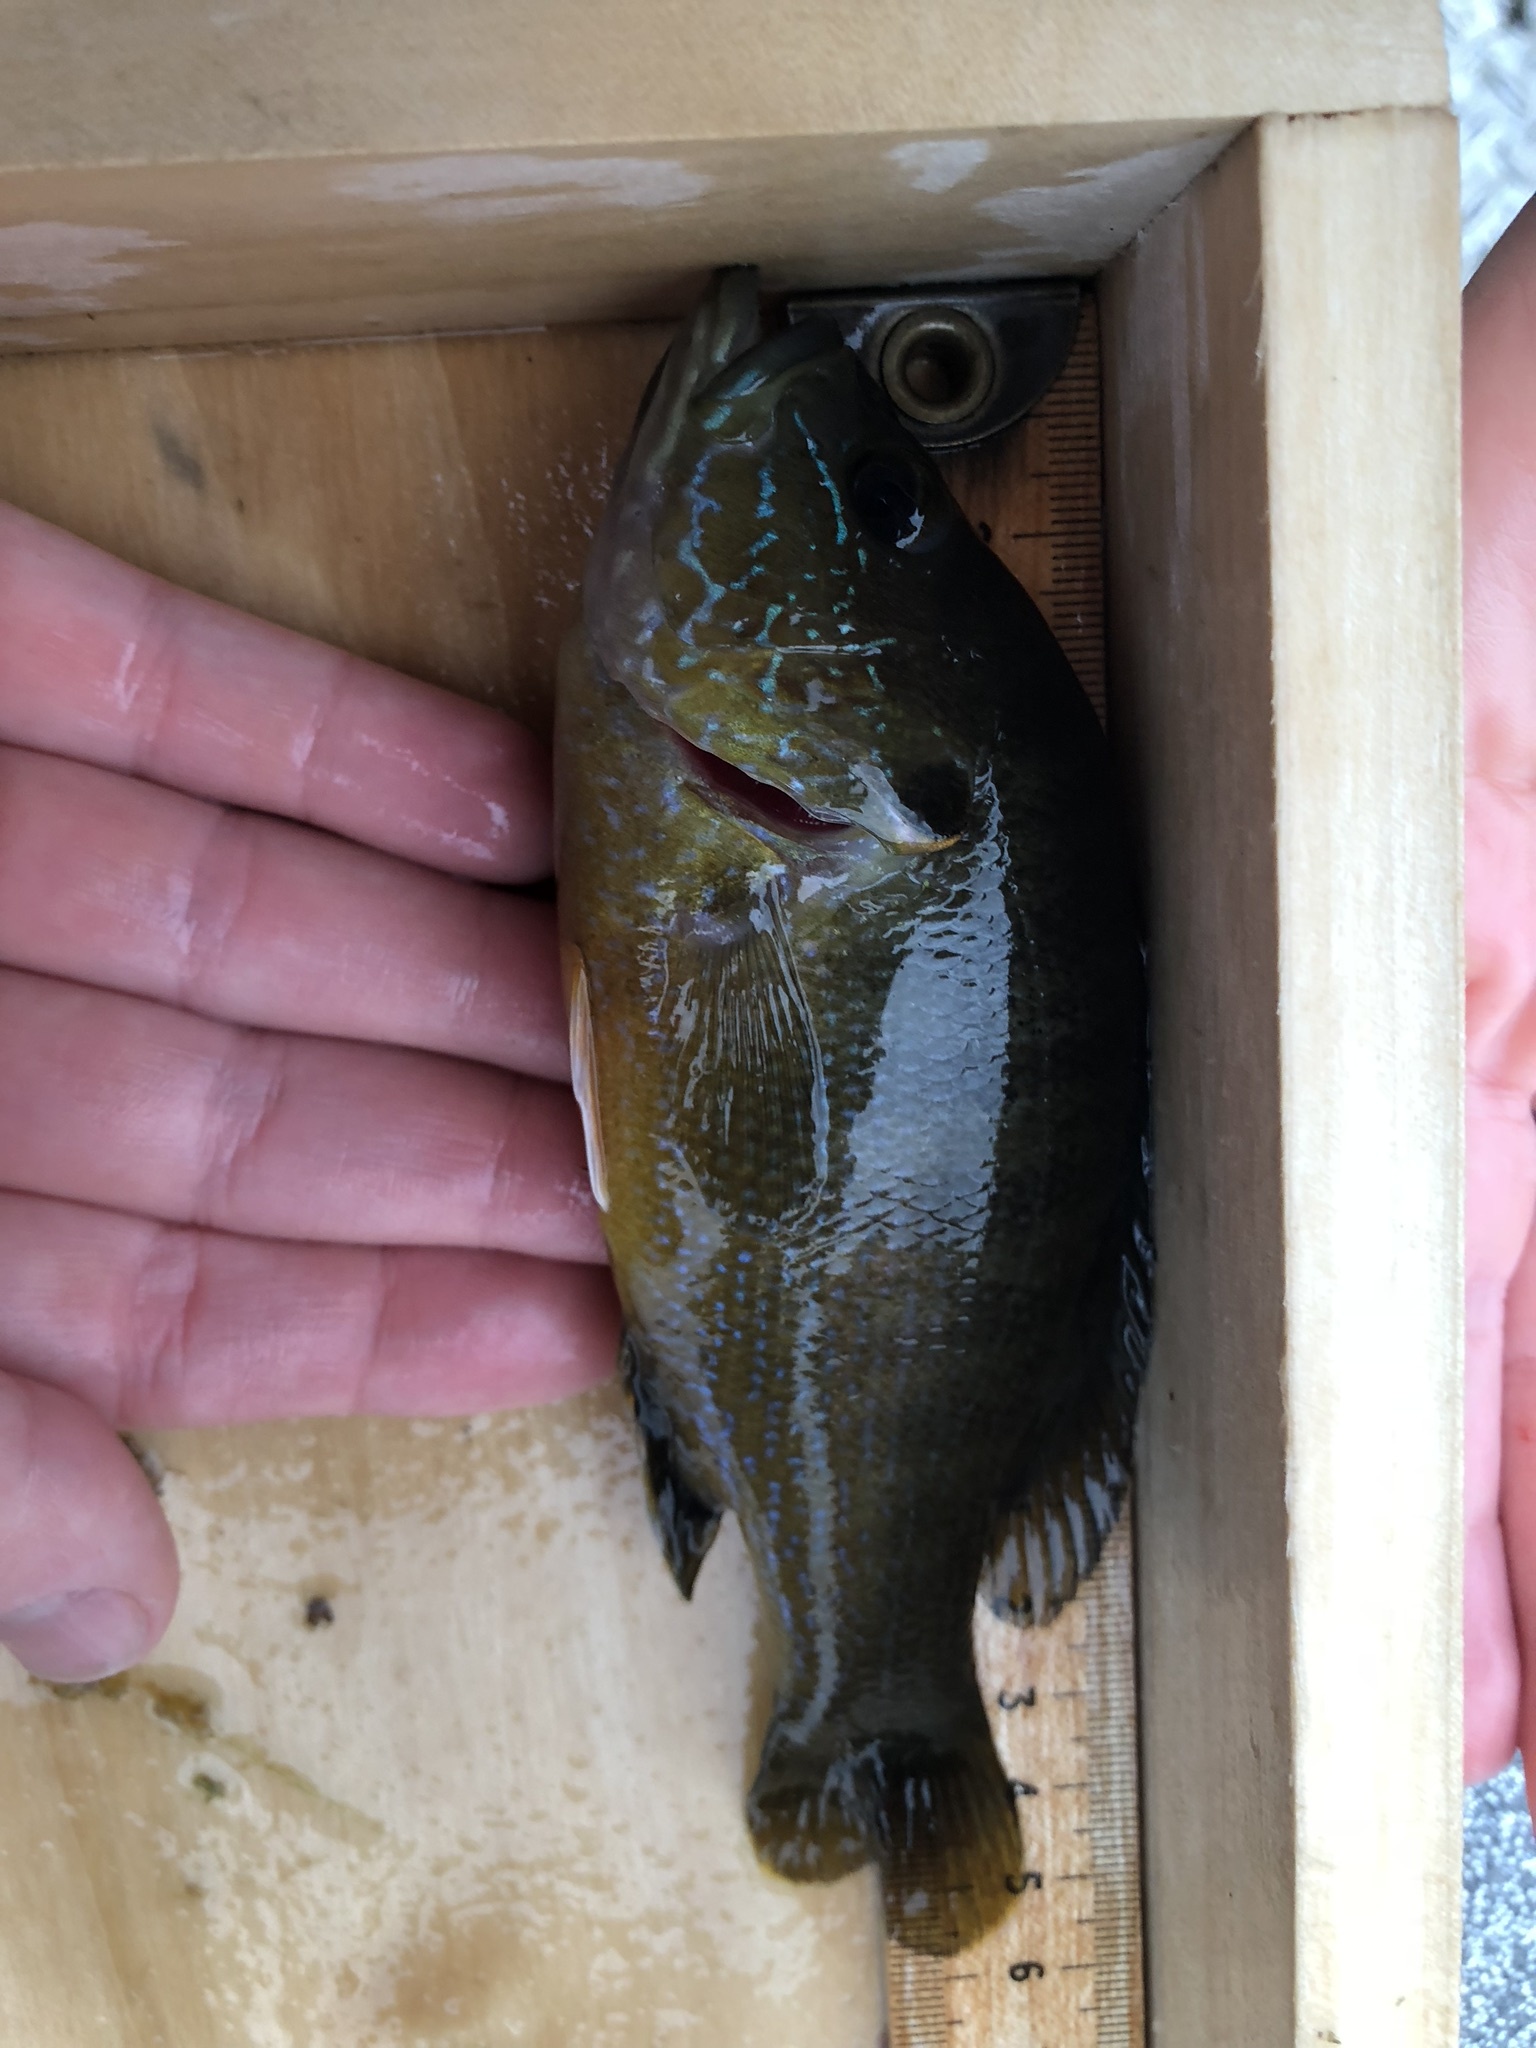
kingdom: Animalia
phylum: Chordata
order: Perciformes
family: Centrarchidae
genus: Lepomis
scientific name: Lepomis cyanellus
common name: Green sunfish
